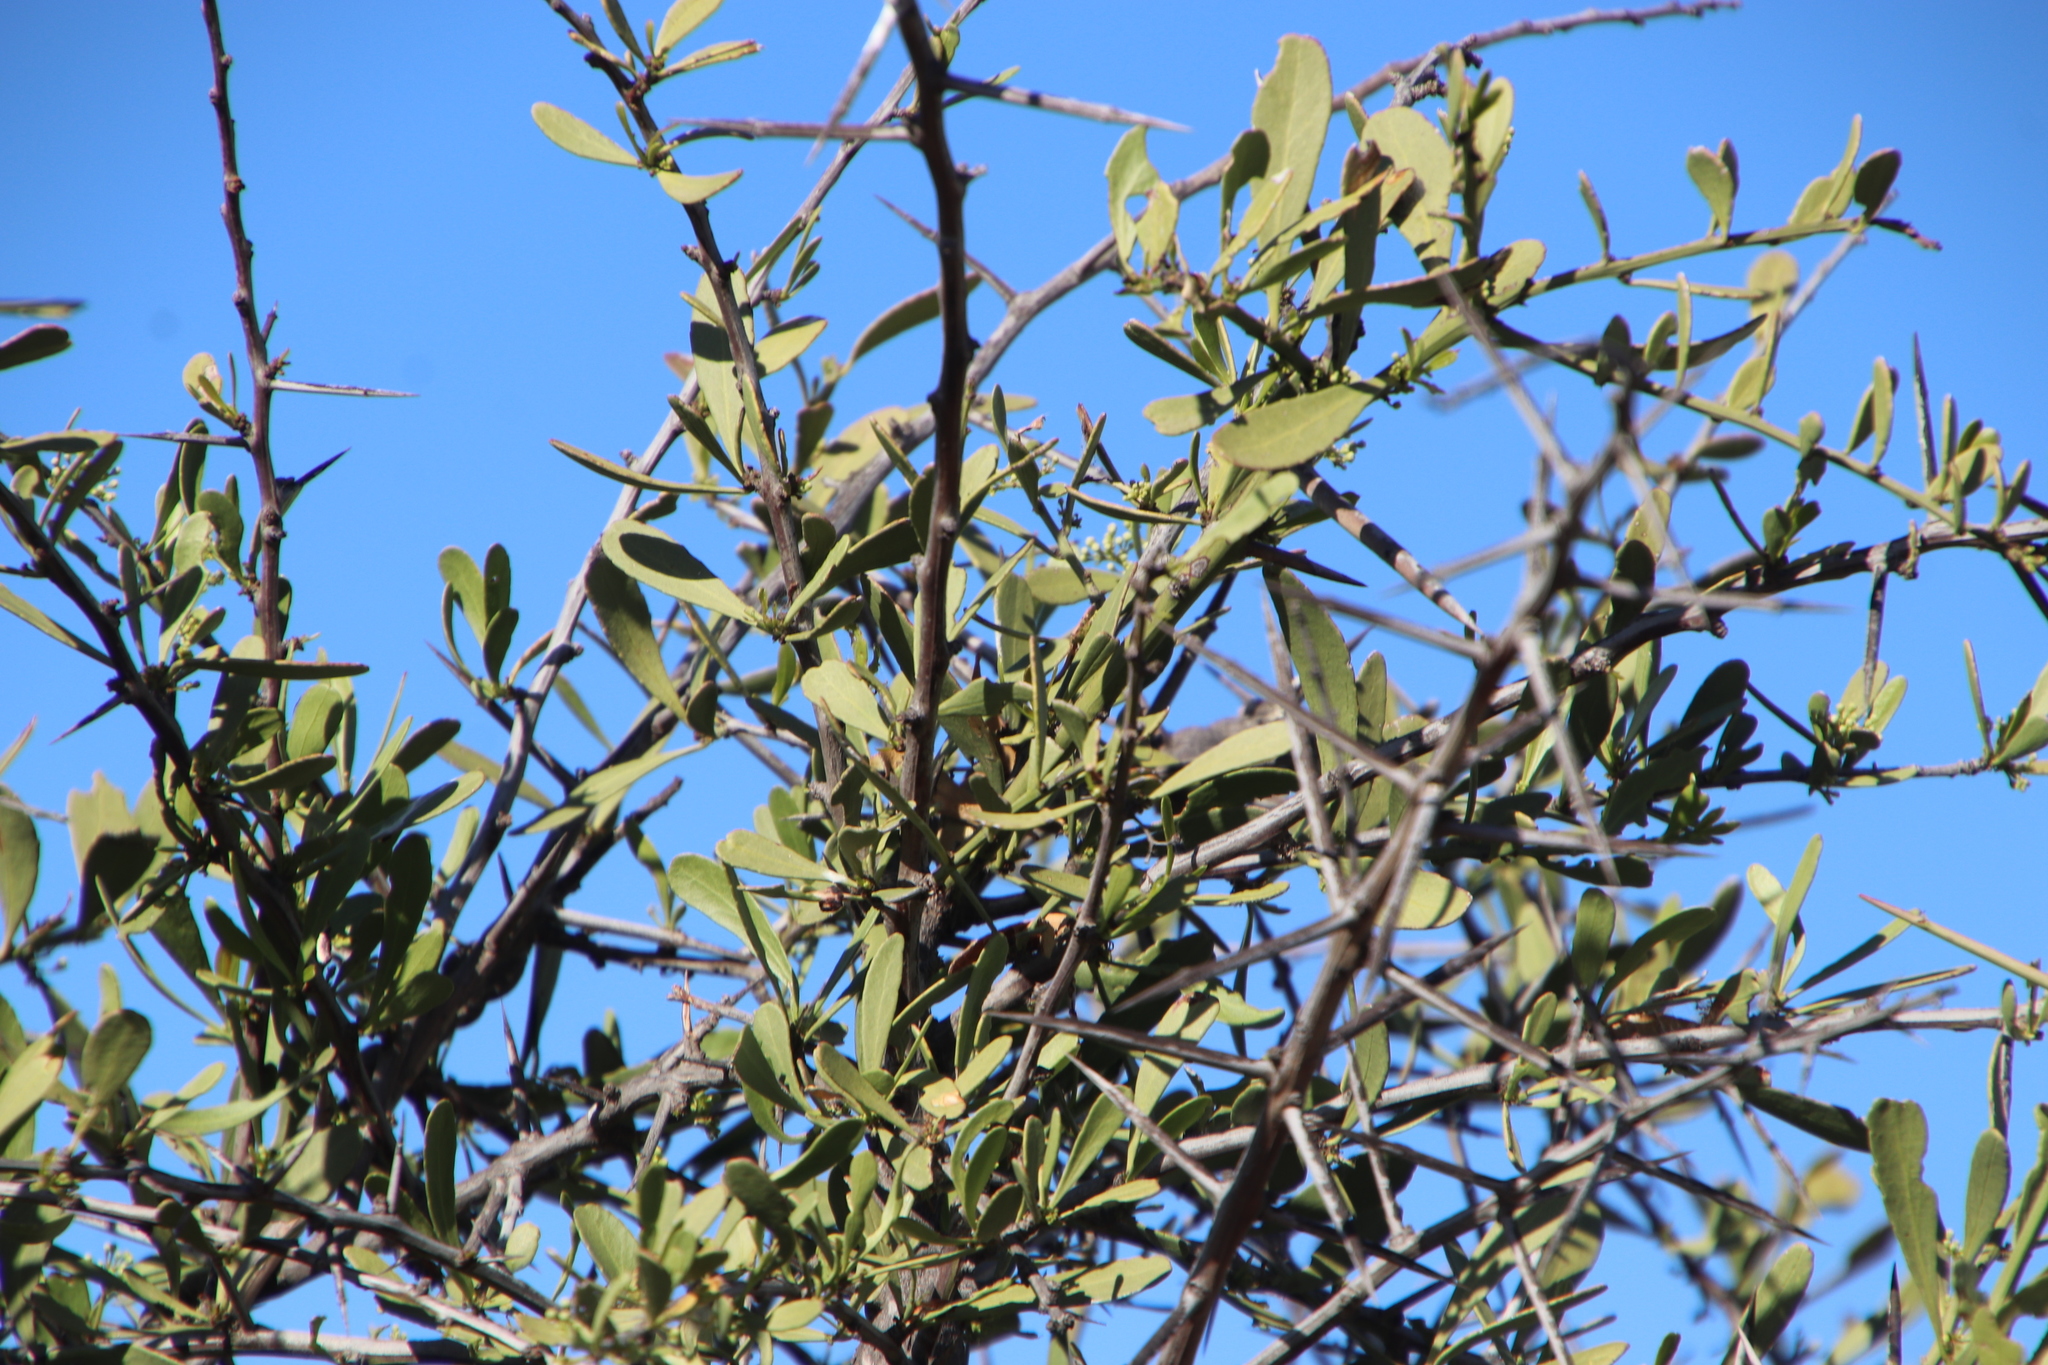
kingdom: Plantae
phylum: Tracheophyta
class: Magnoliopsida
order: Celastrales
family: Celastraceae
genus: Gymnosporia
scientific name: Gymnosporia buxifolia
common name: Common spike-thorn
